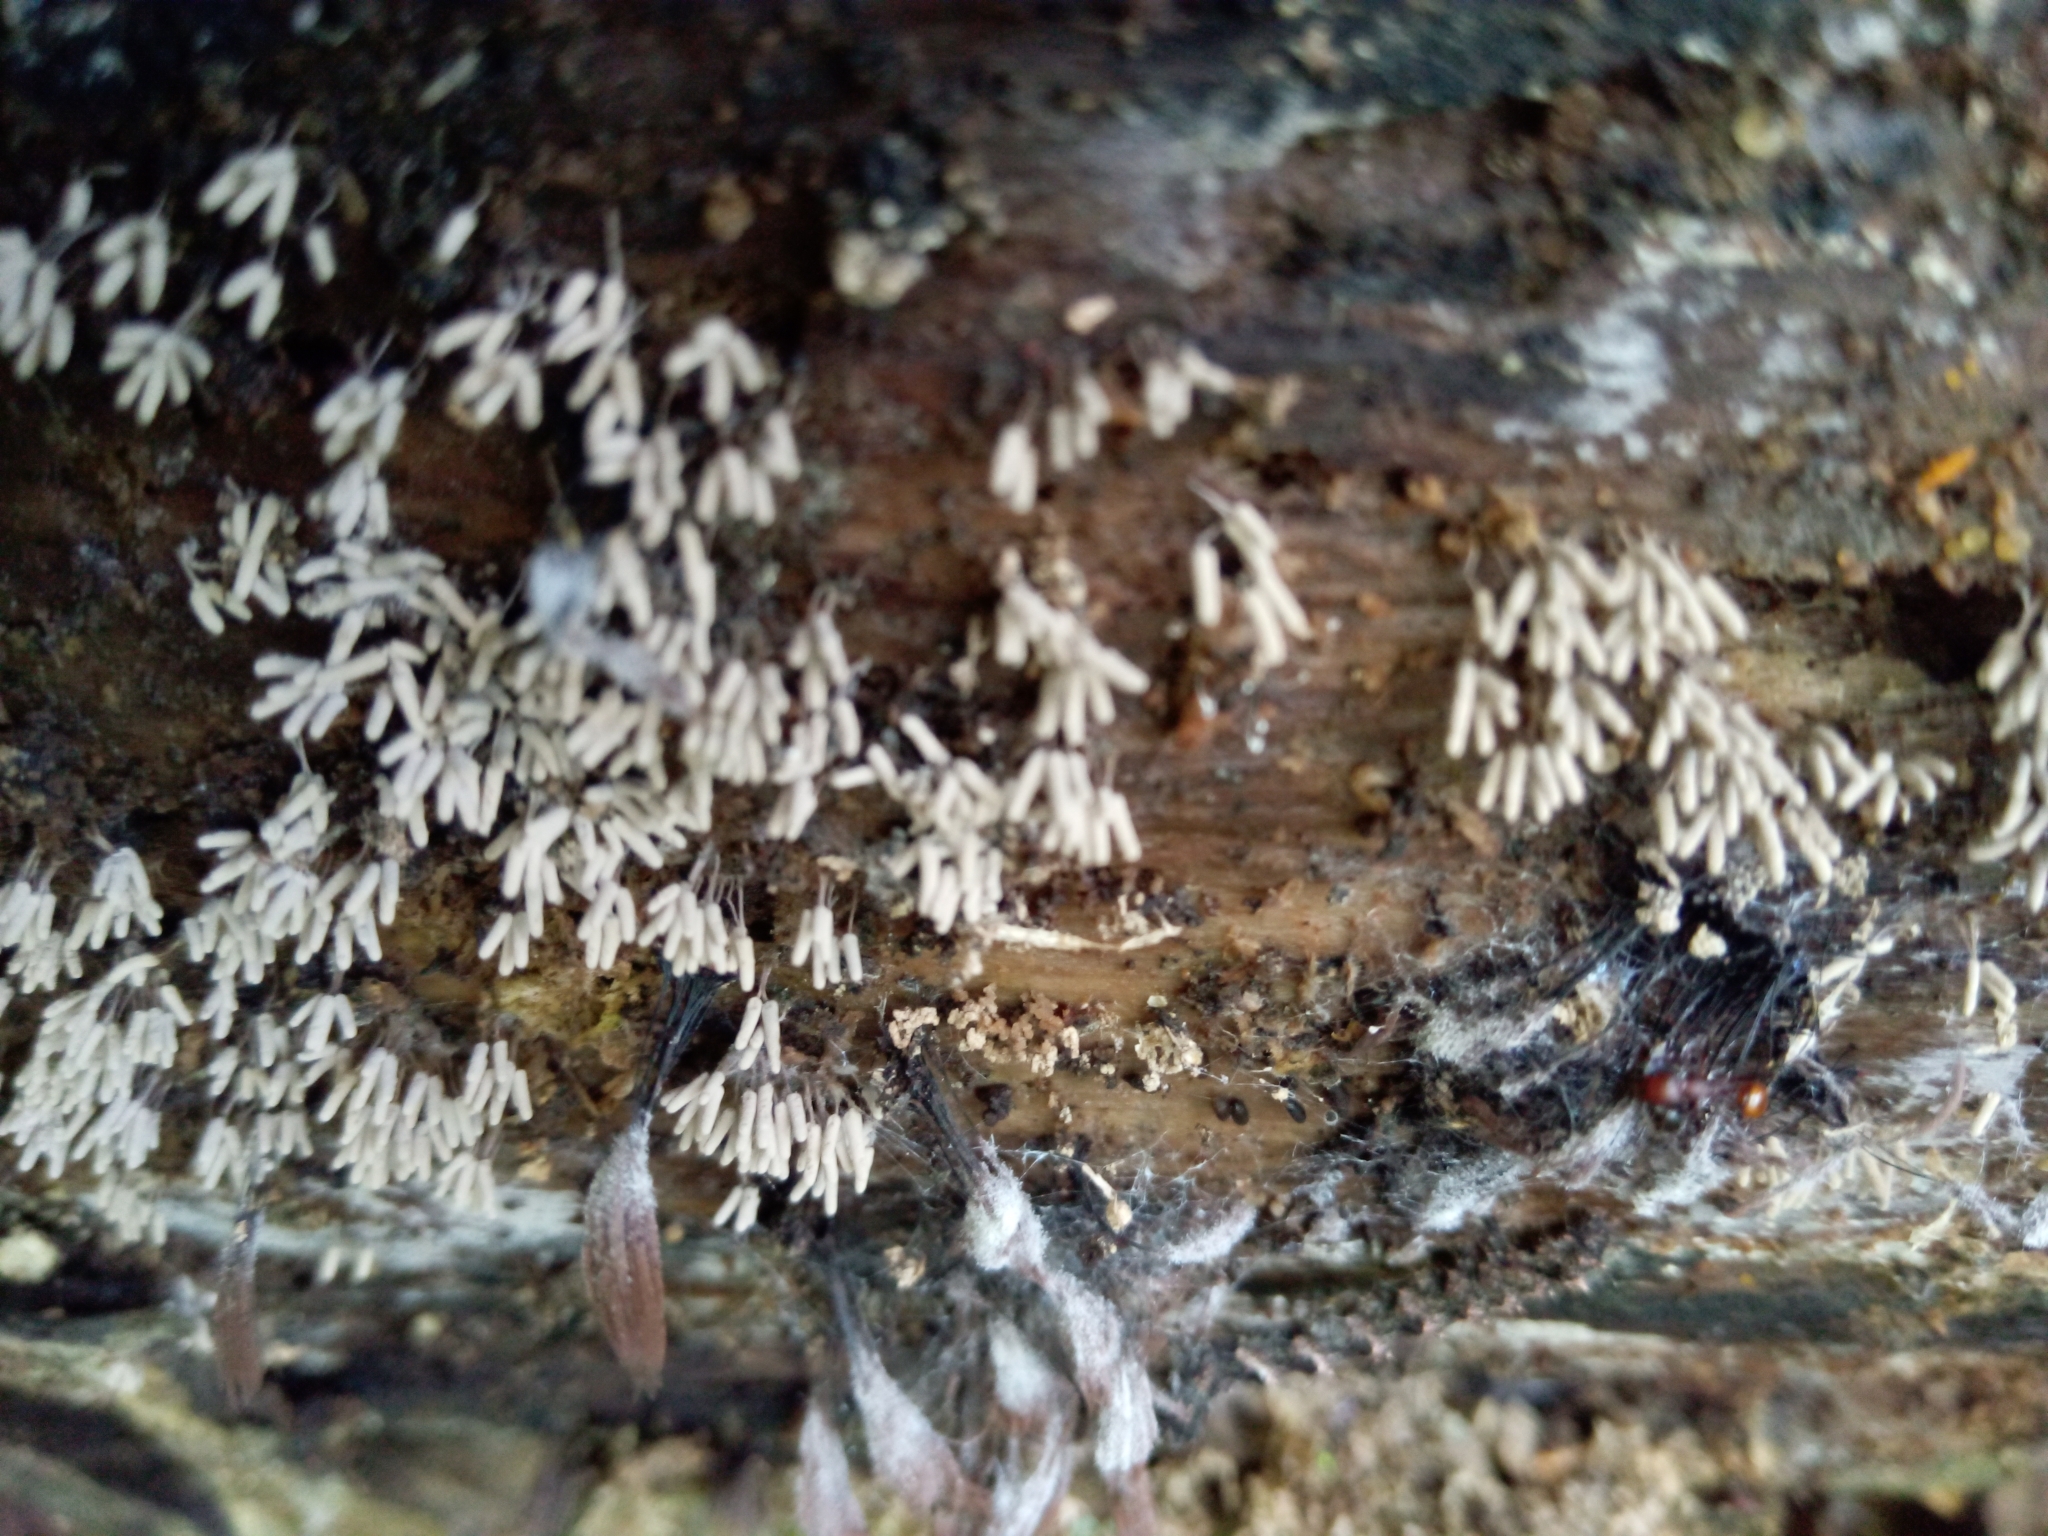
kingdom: Protozoa
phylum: Mycetozoa
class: Myxomycetes
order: Trichiales
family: Arcyriaceae
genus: Arcyria
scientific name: Arcyria cinerea
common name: White carnival candy slime mold
